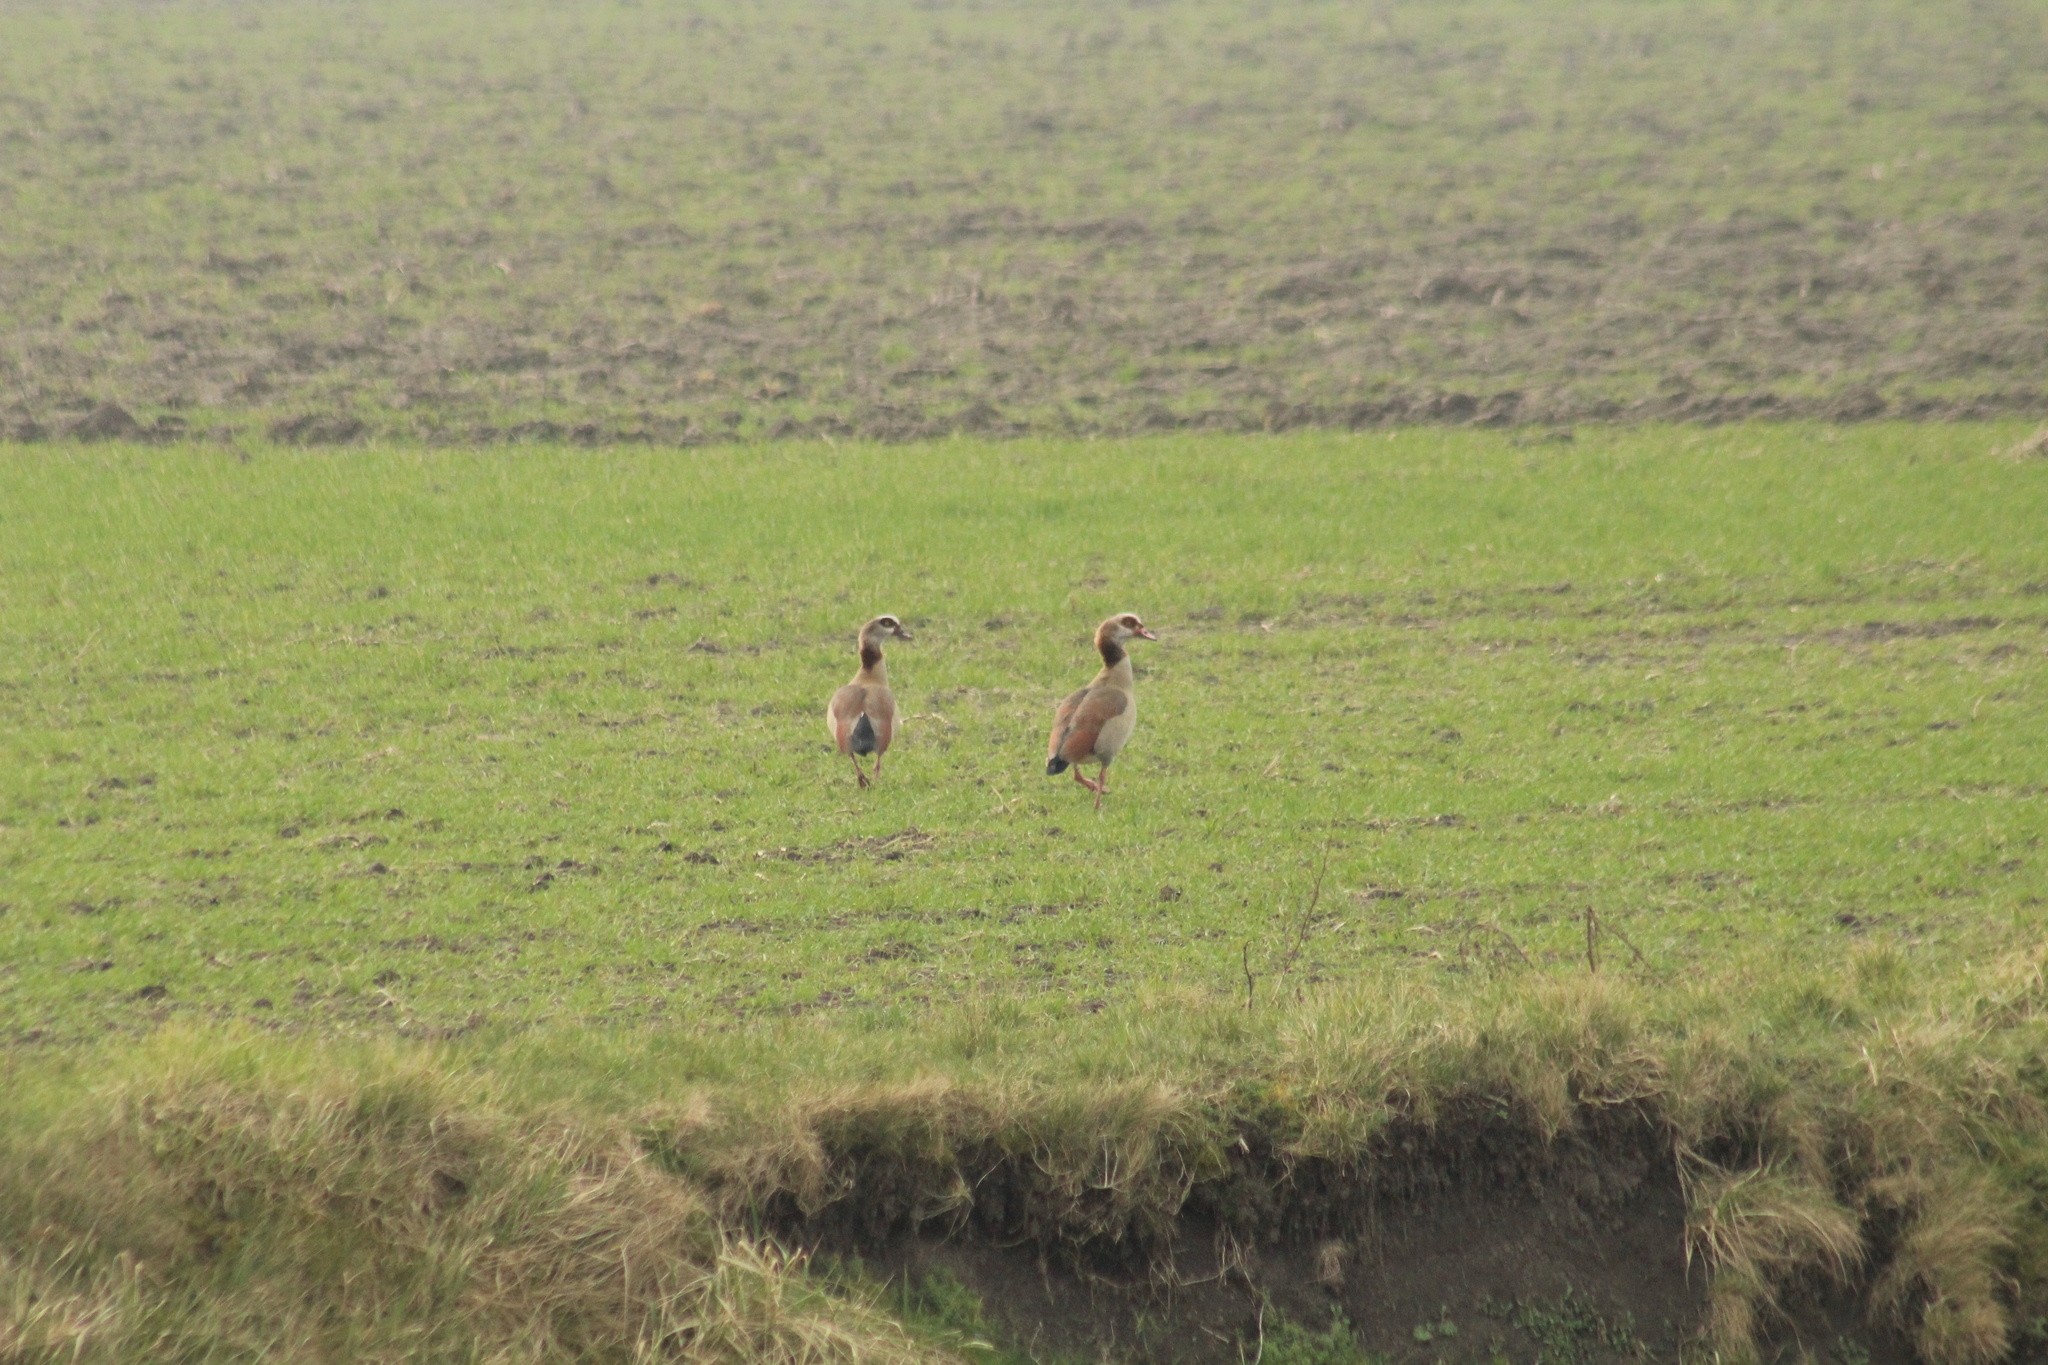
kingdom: Animalia
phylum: Chordata
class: Aves
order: Anseriformes
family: Anatidae
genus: Alopochen
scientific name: Alopochen aegyptiaca
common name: Egyptian goose
